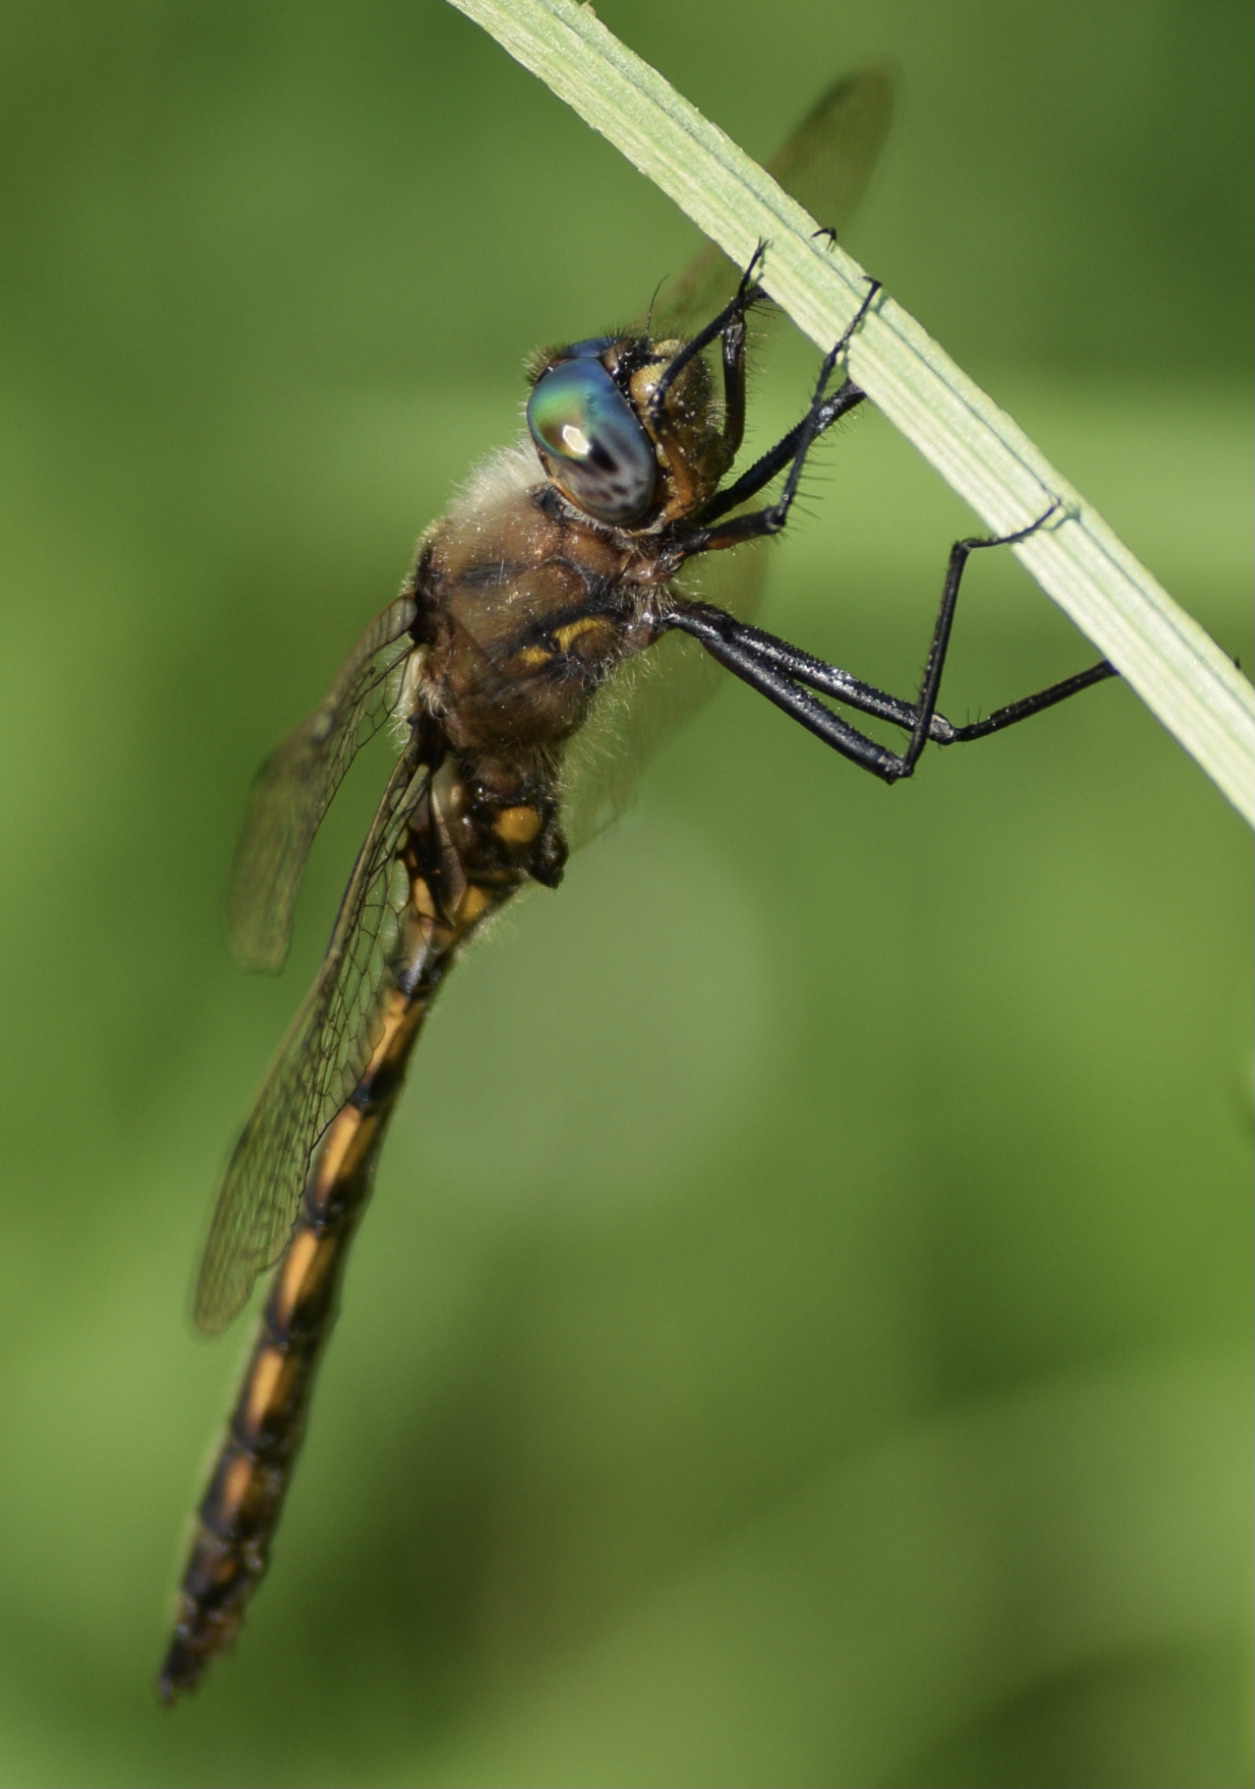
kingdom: Animalia
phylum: Arthropoda
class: Insecta
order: Odonata
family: Corduliidae
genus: Epitheca
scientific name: Epitheca canis
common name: Beaverpond baskettail
